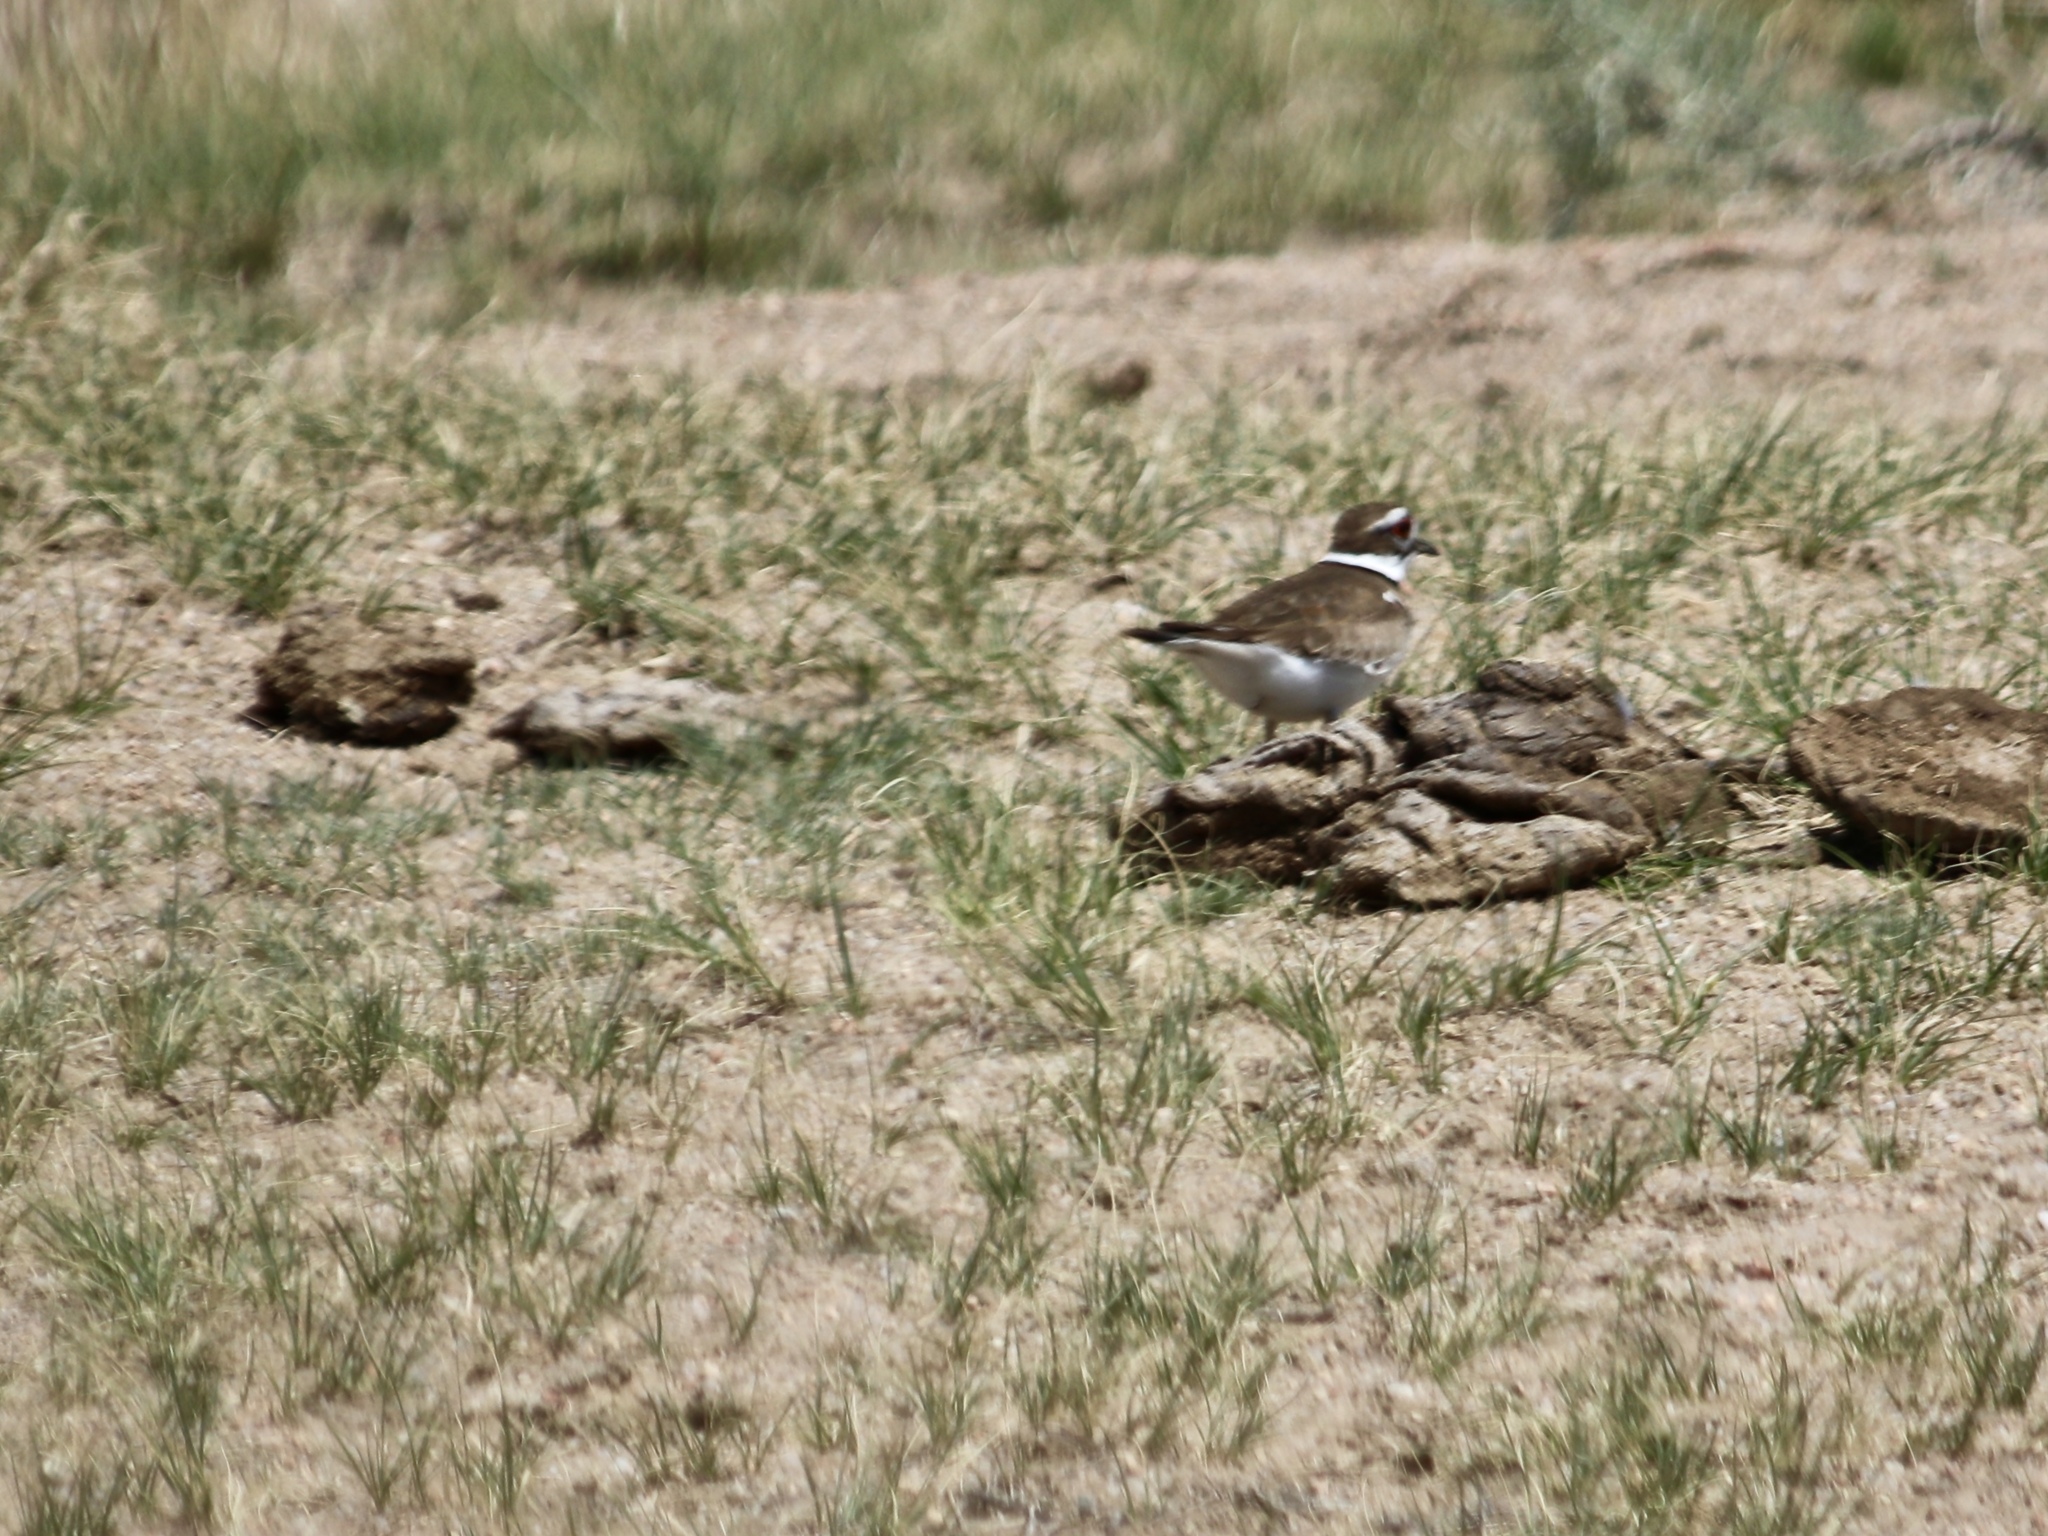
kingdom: Animalia
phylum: Chordata
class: Aves
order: Charadriiformes
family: Charadriidae
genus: Charadrius
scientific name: Charadrius vociferus
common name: Killdeer
